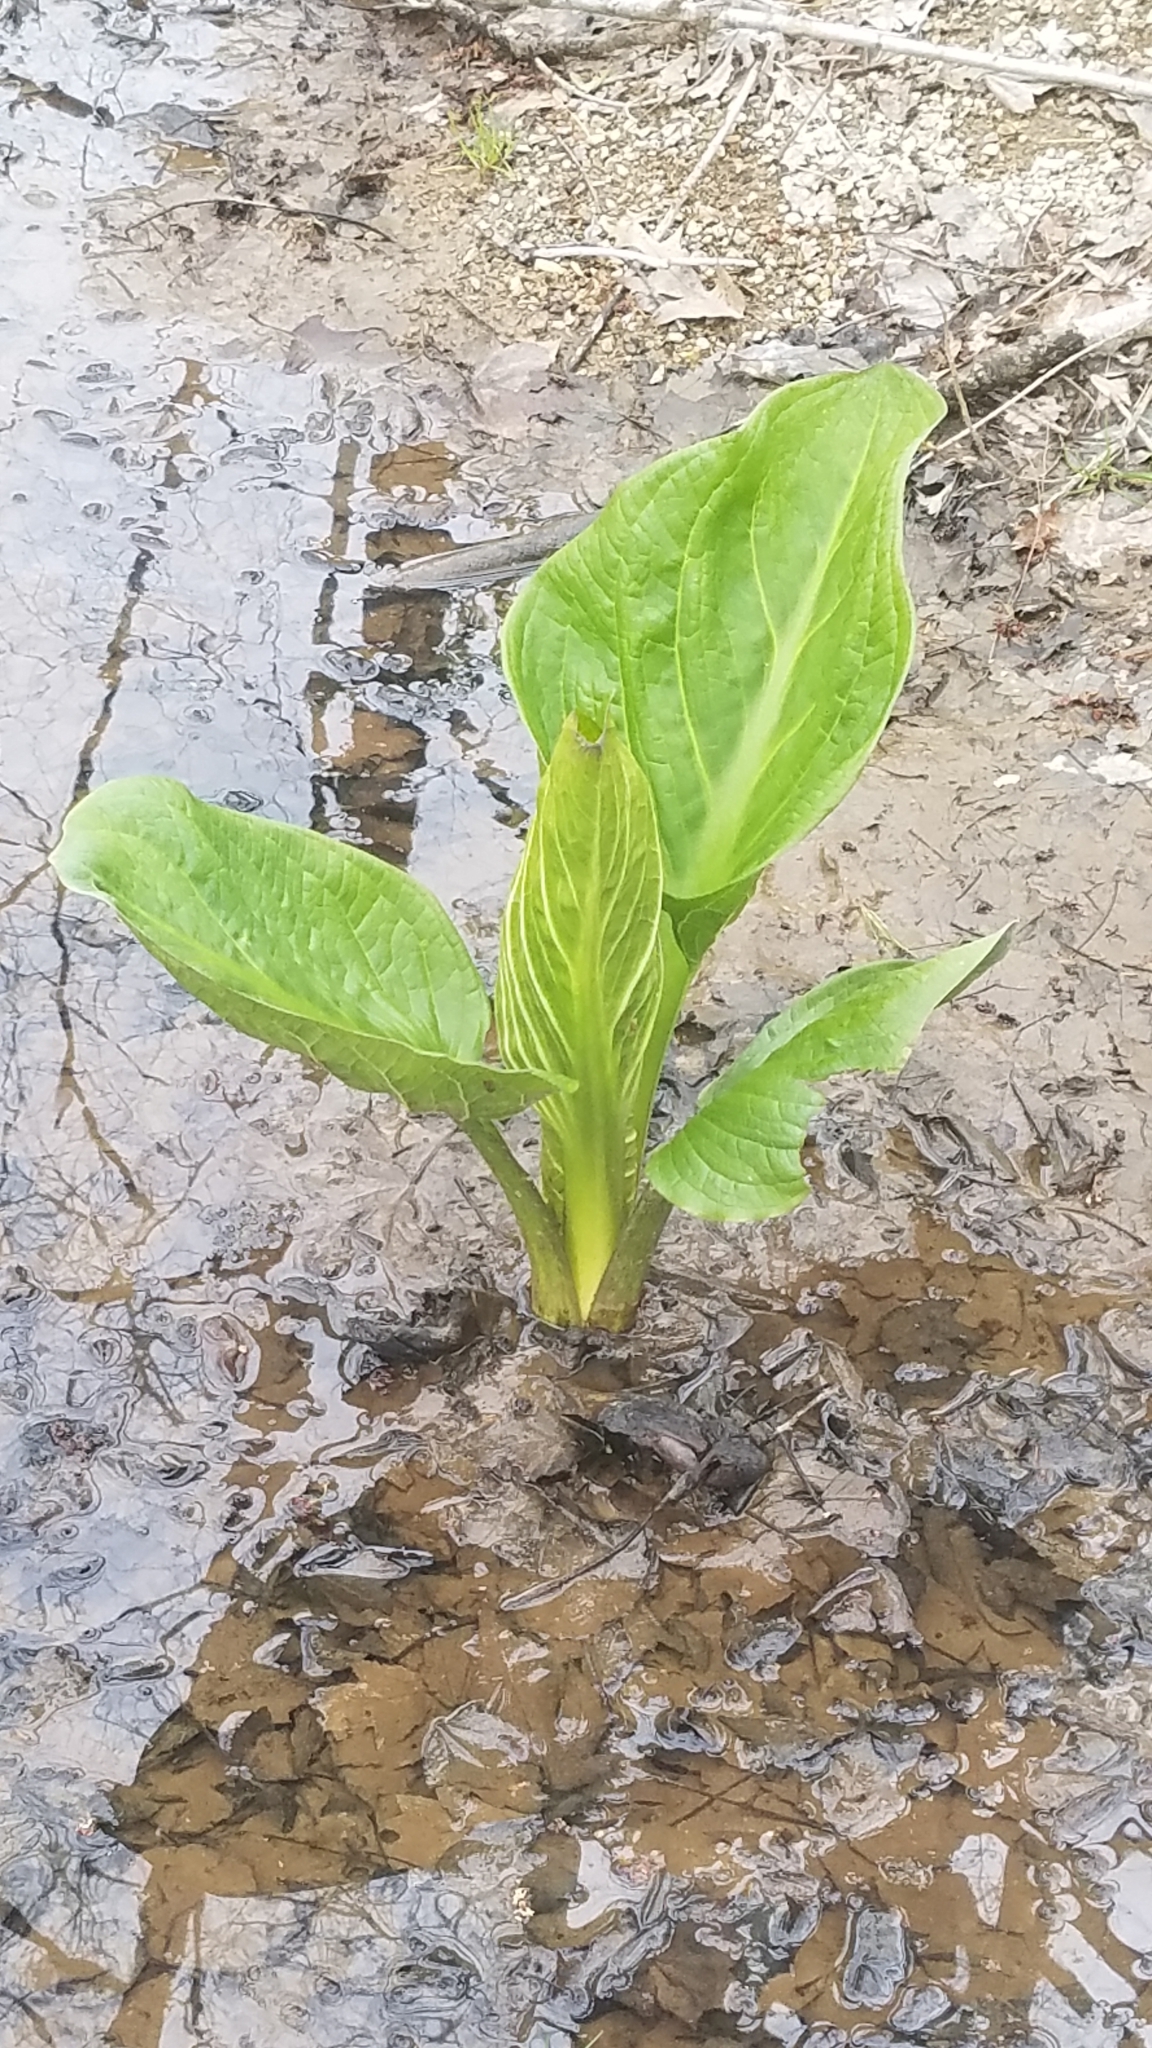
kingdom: Plantae
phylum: Tracheophyta
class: Liliopsida
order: Alismatales
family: Araceae
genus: Symplocarpus
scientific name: Symplocarpus foetidus
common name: Eastern skunk cabbage
